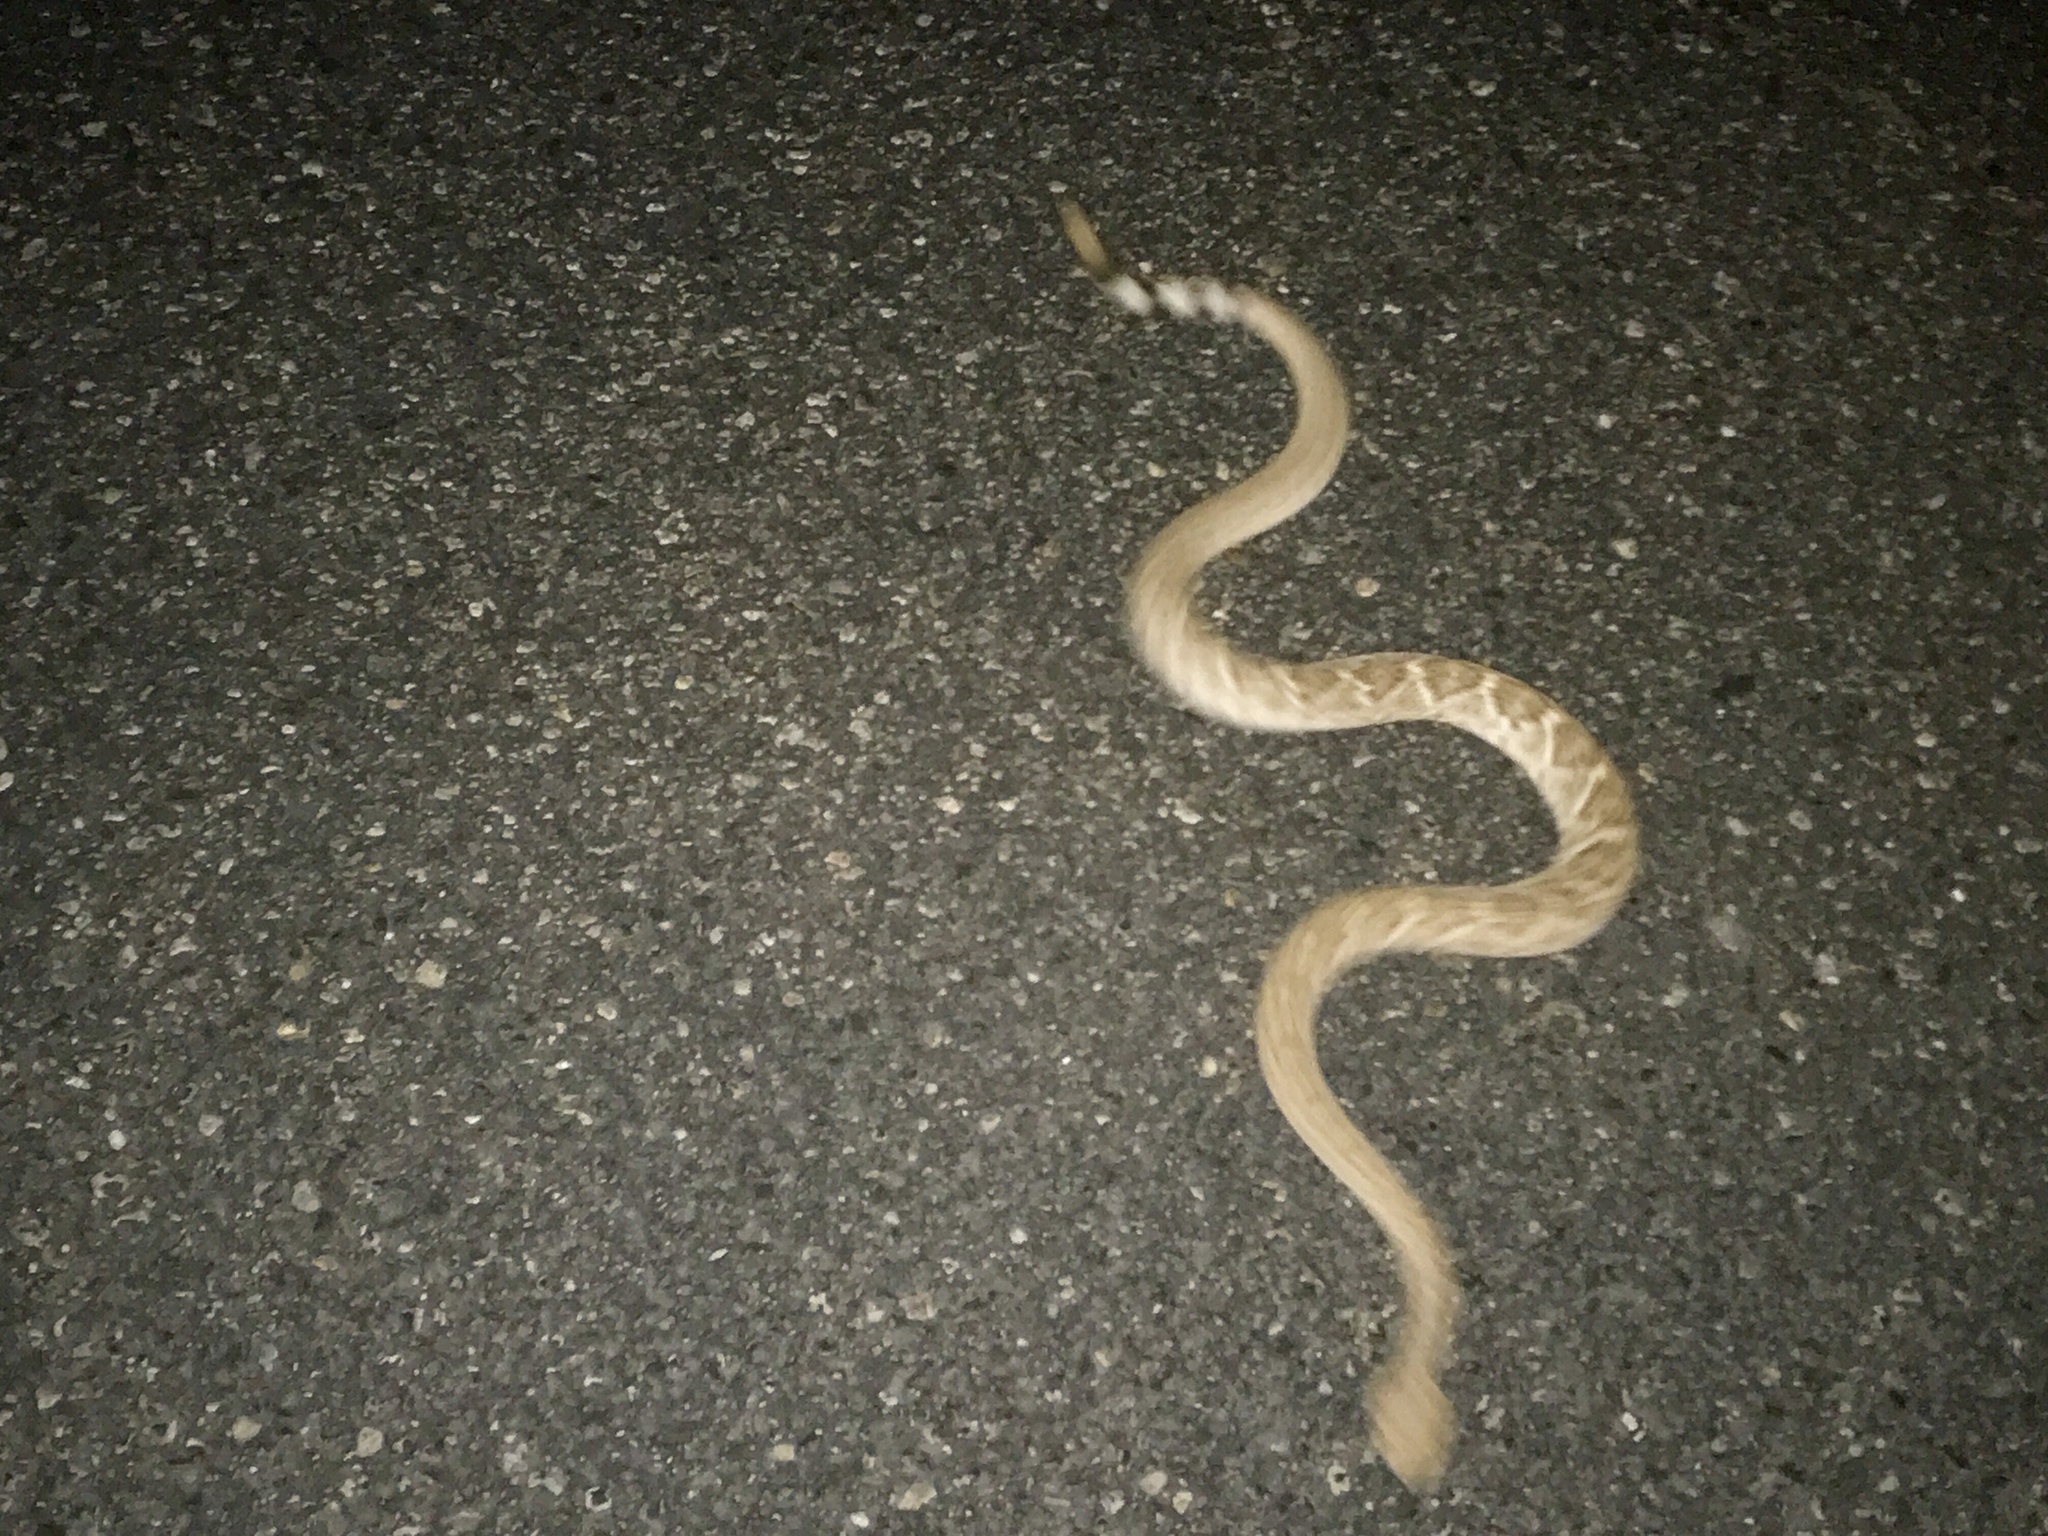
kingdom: Animalia
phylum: Chordata
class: Squamata
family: Viperidae
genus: Crotalus
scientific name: Crotalus atrox
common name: Western diamond-backed rattlesnake
